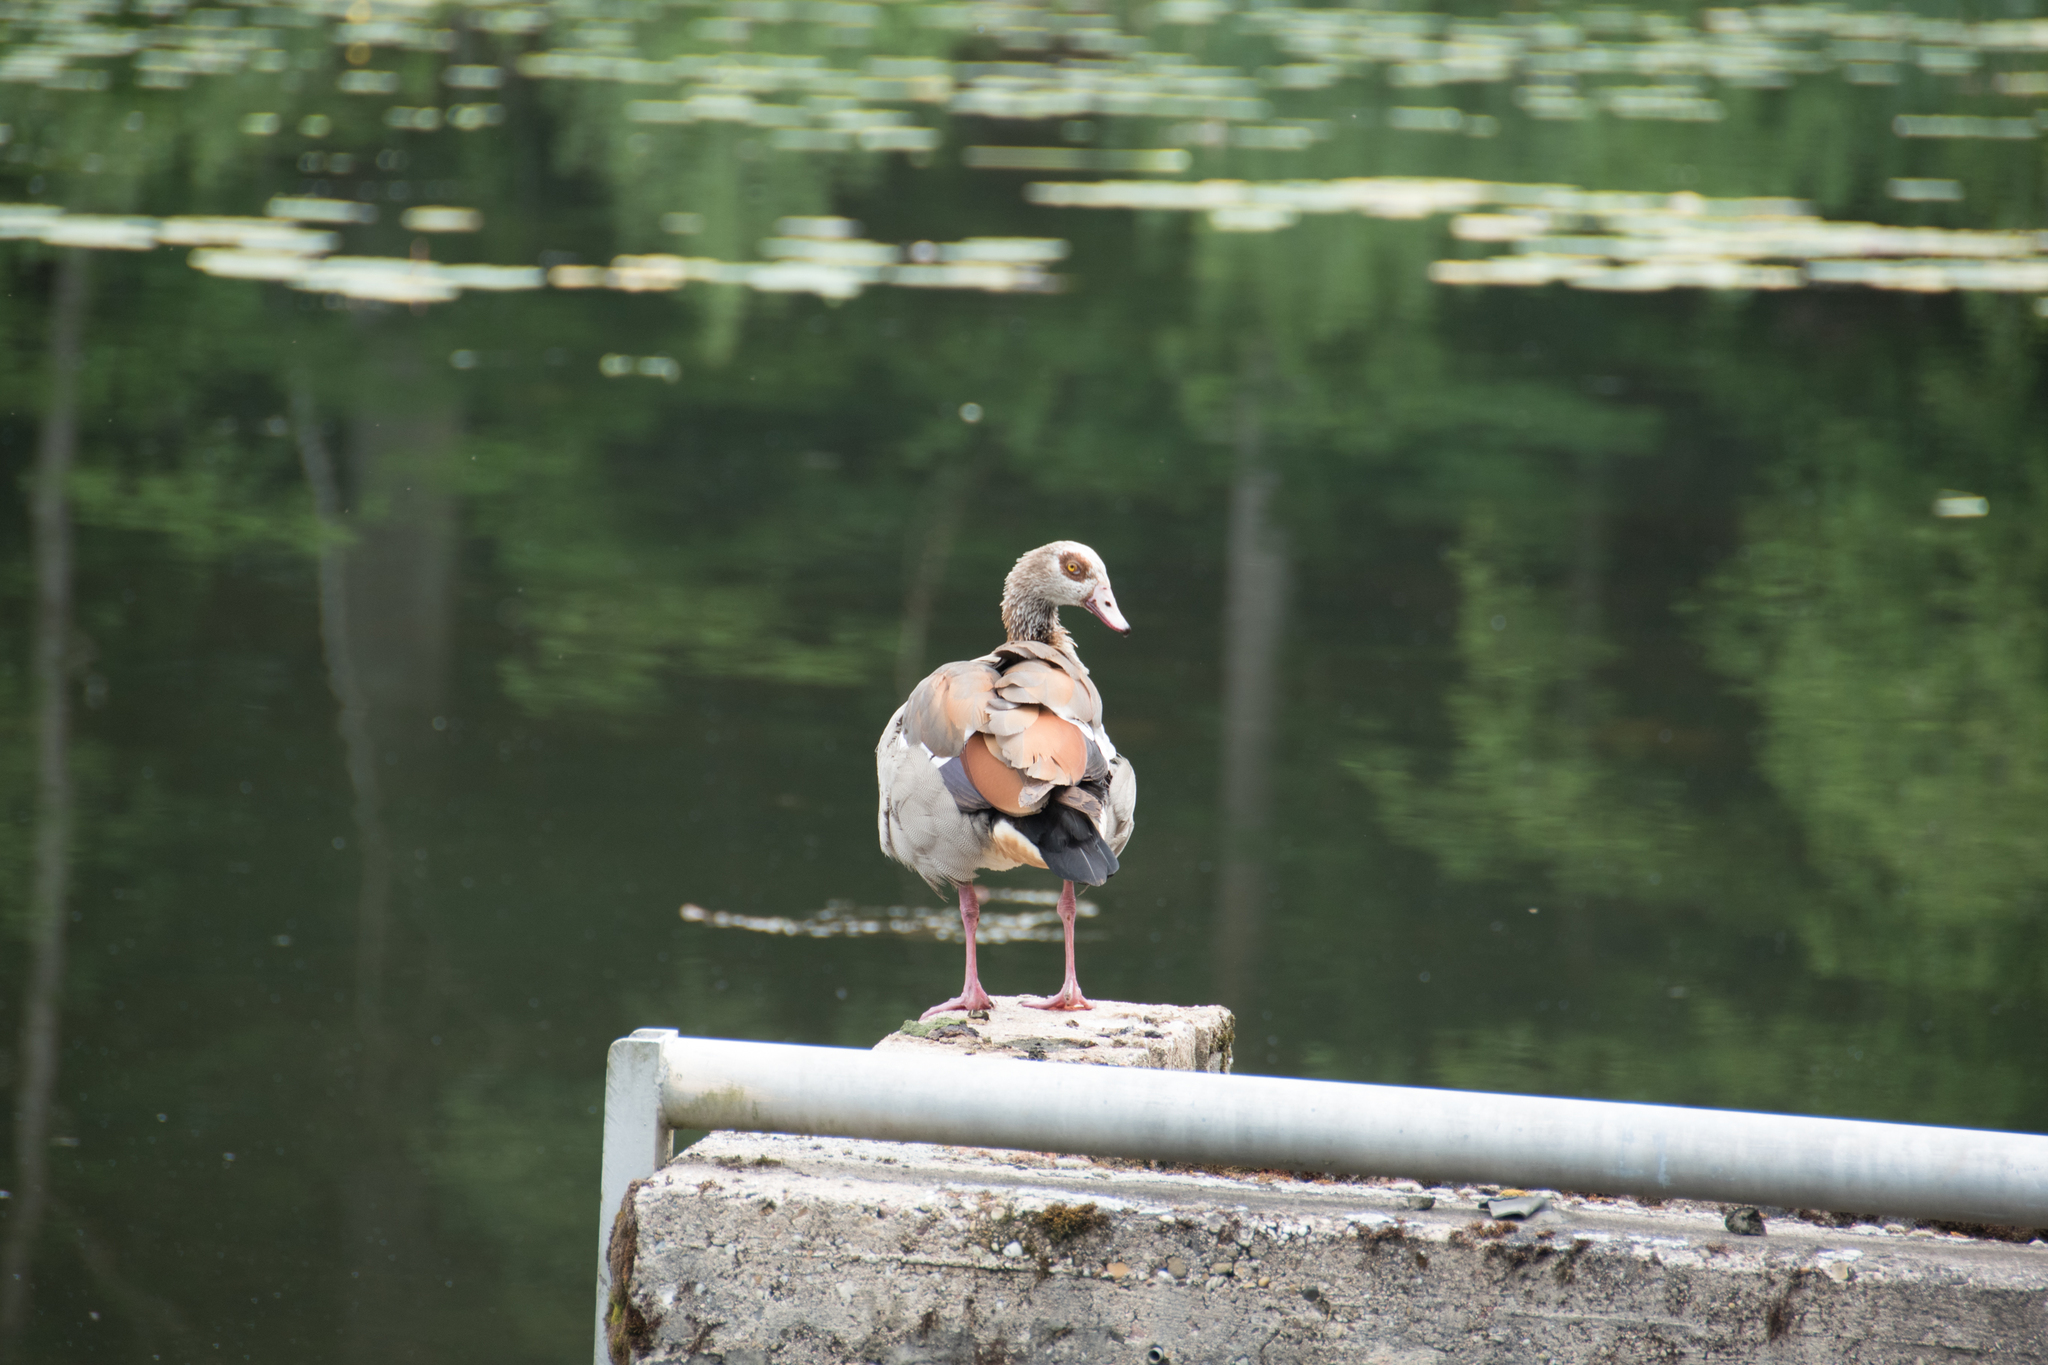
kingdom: Animalia
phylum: Chordata
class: Aves
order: Anseriformes
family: Anatidae
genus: Alopochen
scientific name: Alopochen aegyptiaca
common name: Egyptian goose
